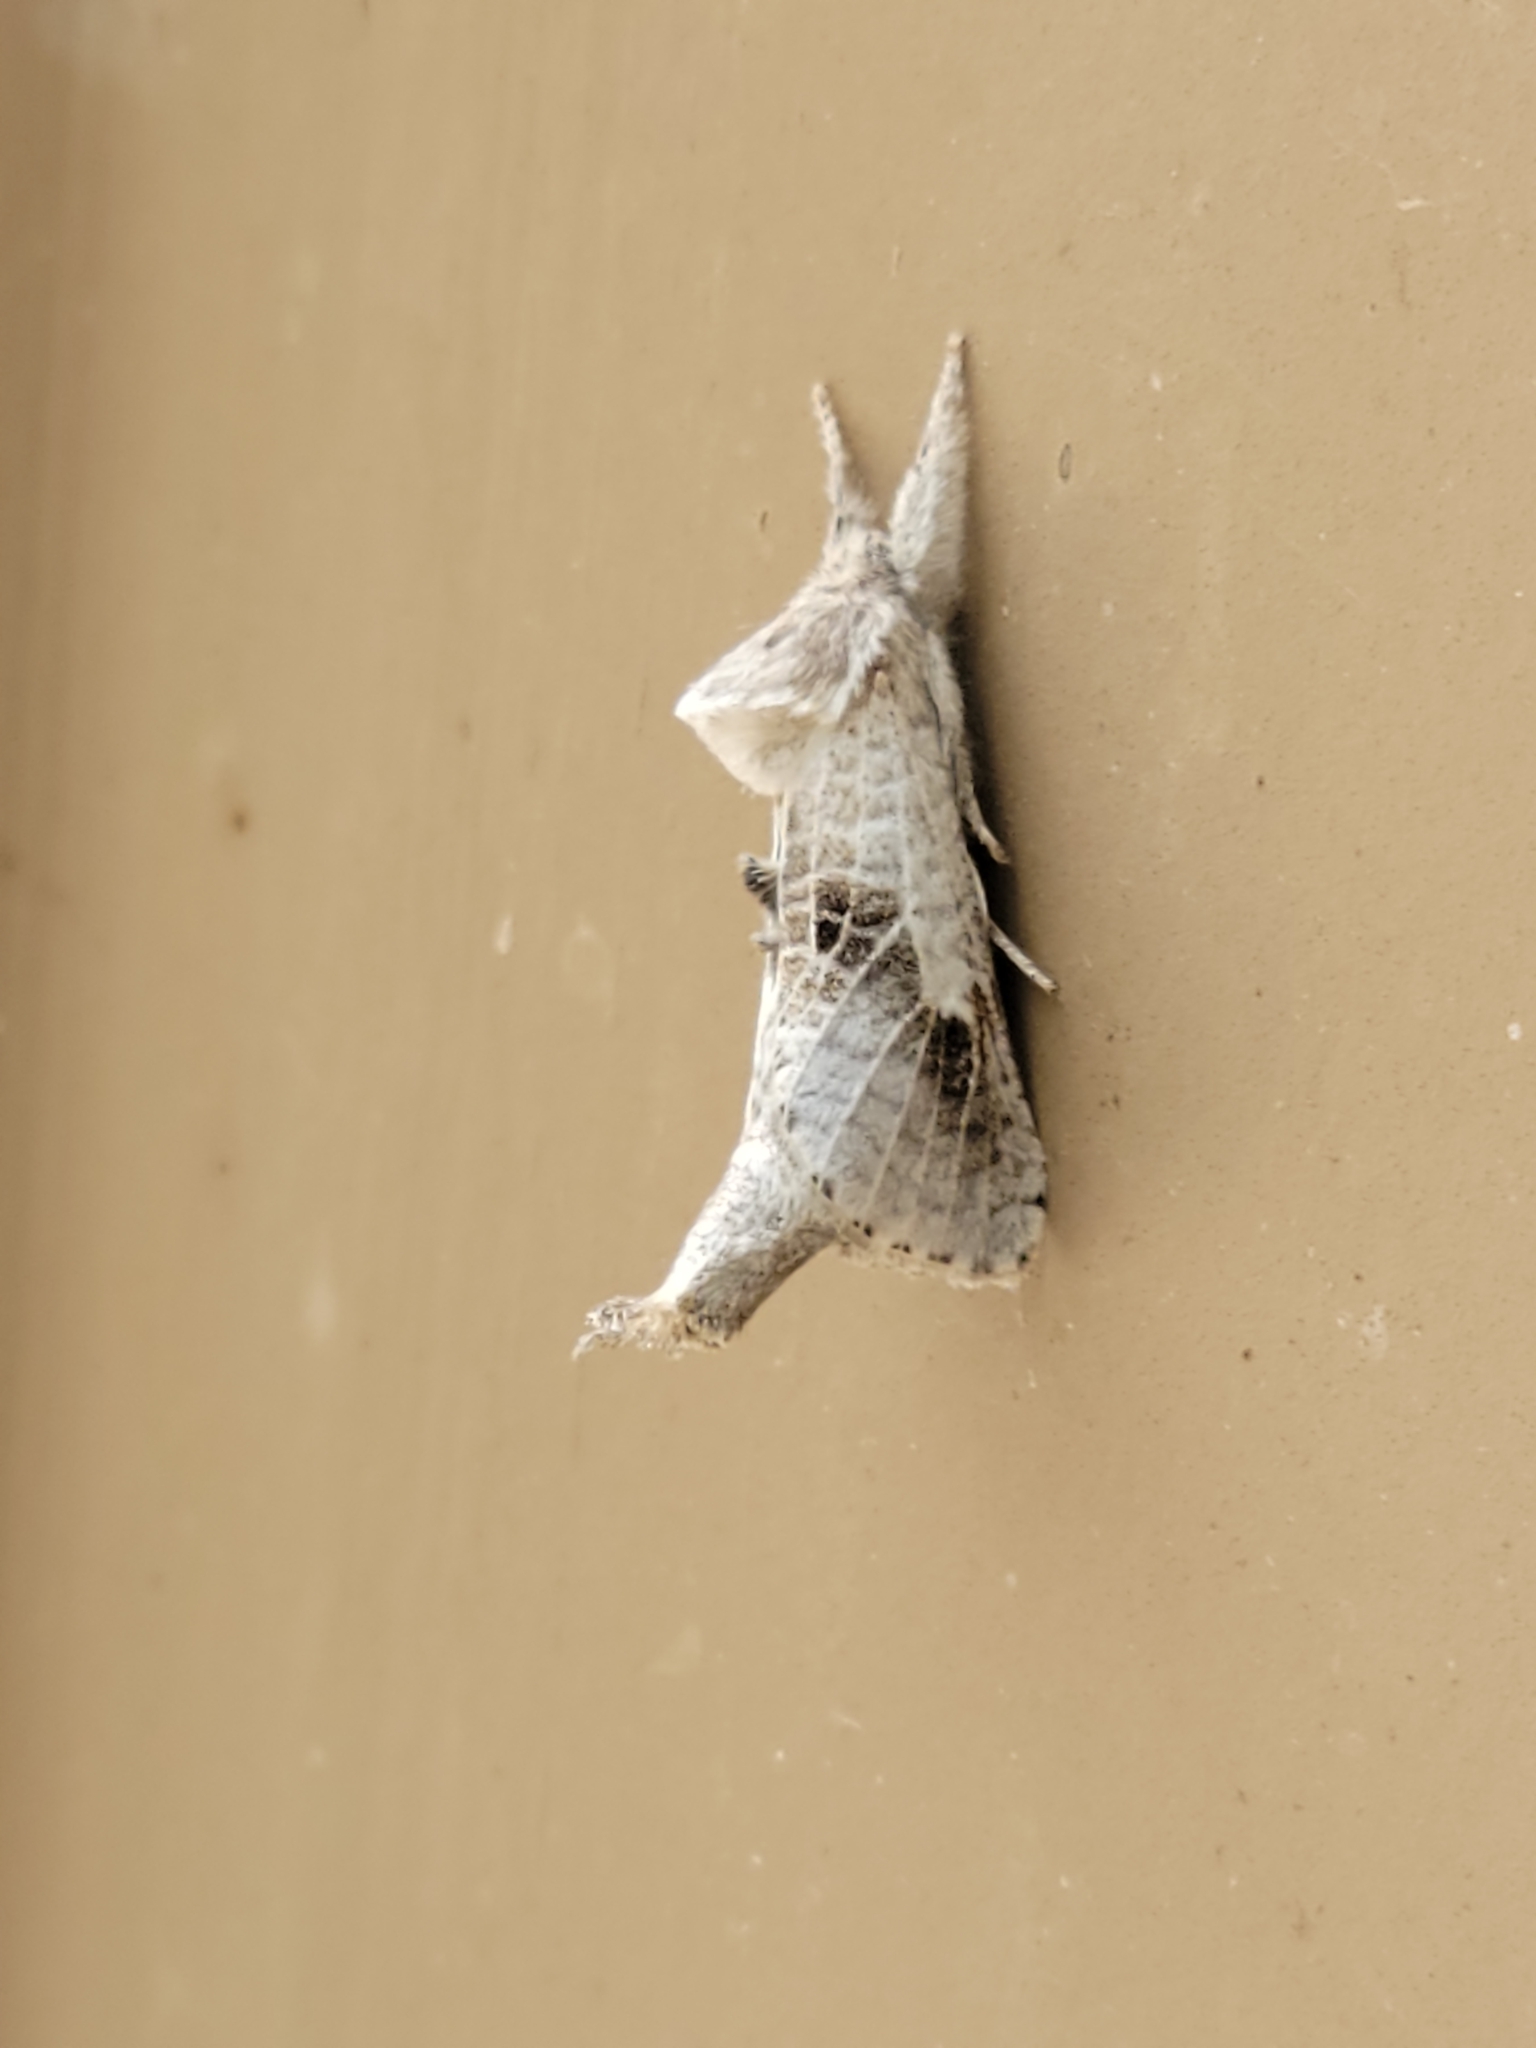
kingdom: Animalia
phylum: Arthropoda
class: Insecta
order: Lepidoptera
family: Cossidae
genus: Givira
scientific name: Givira
